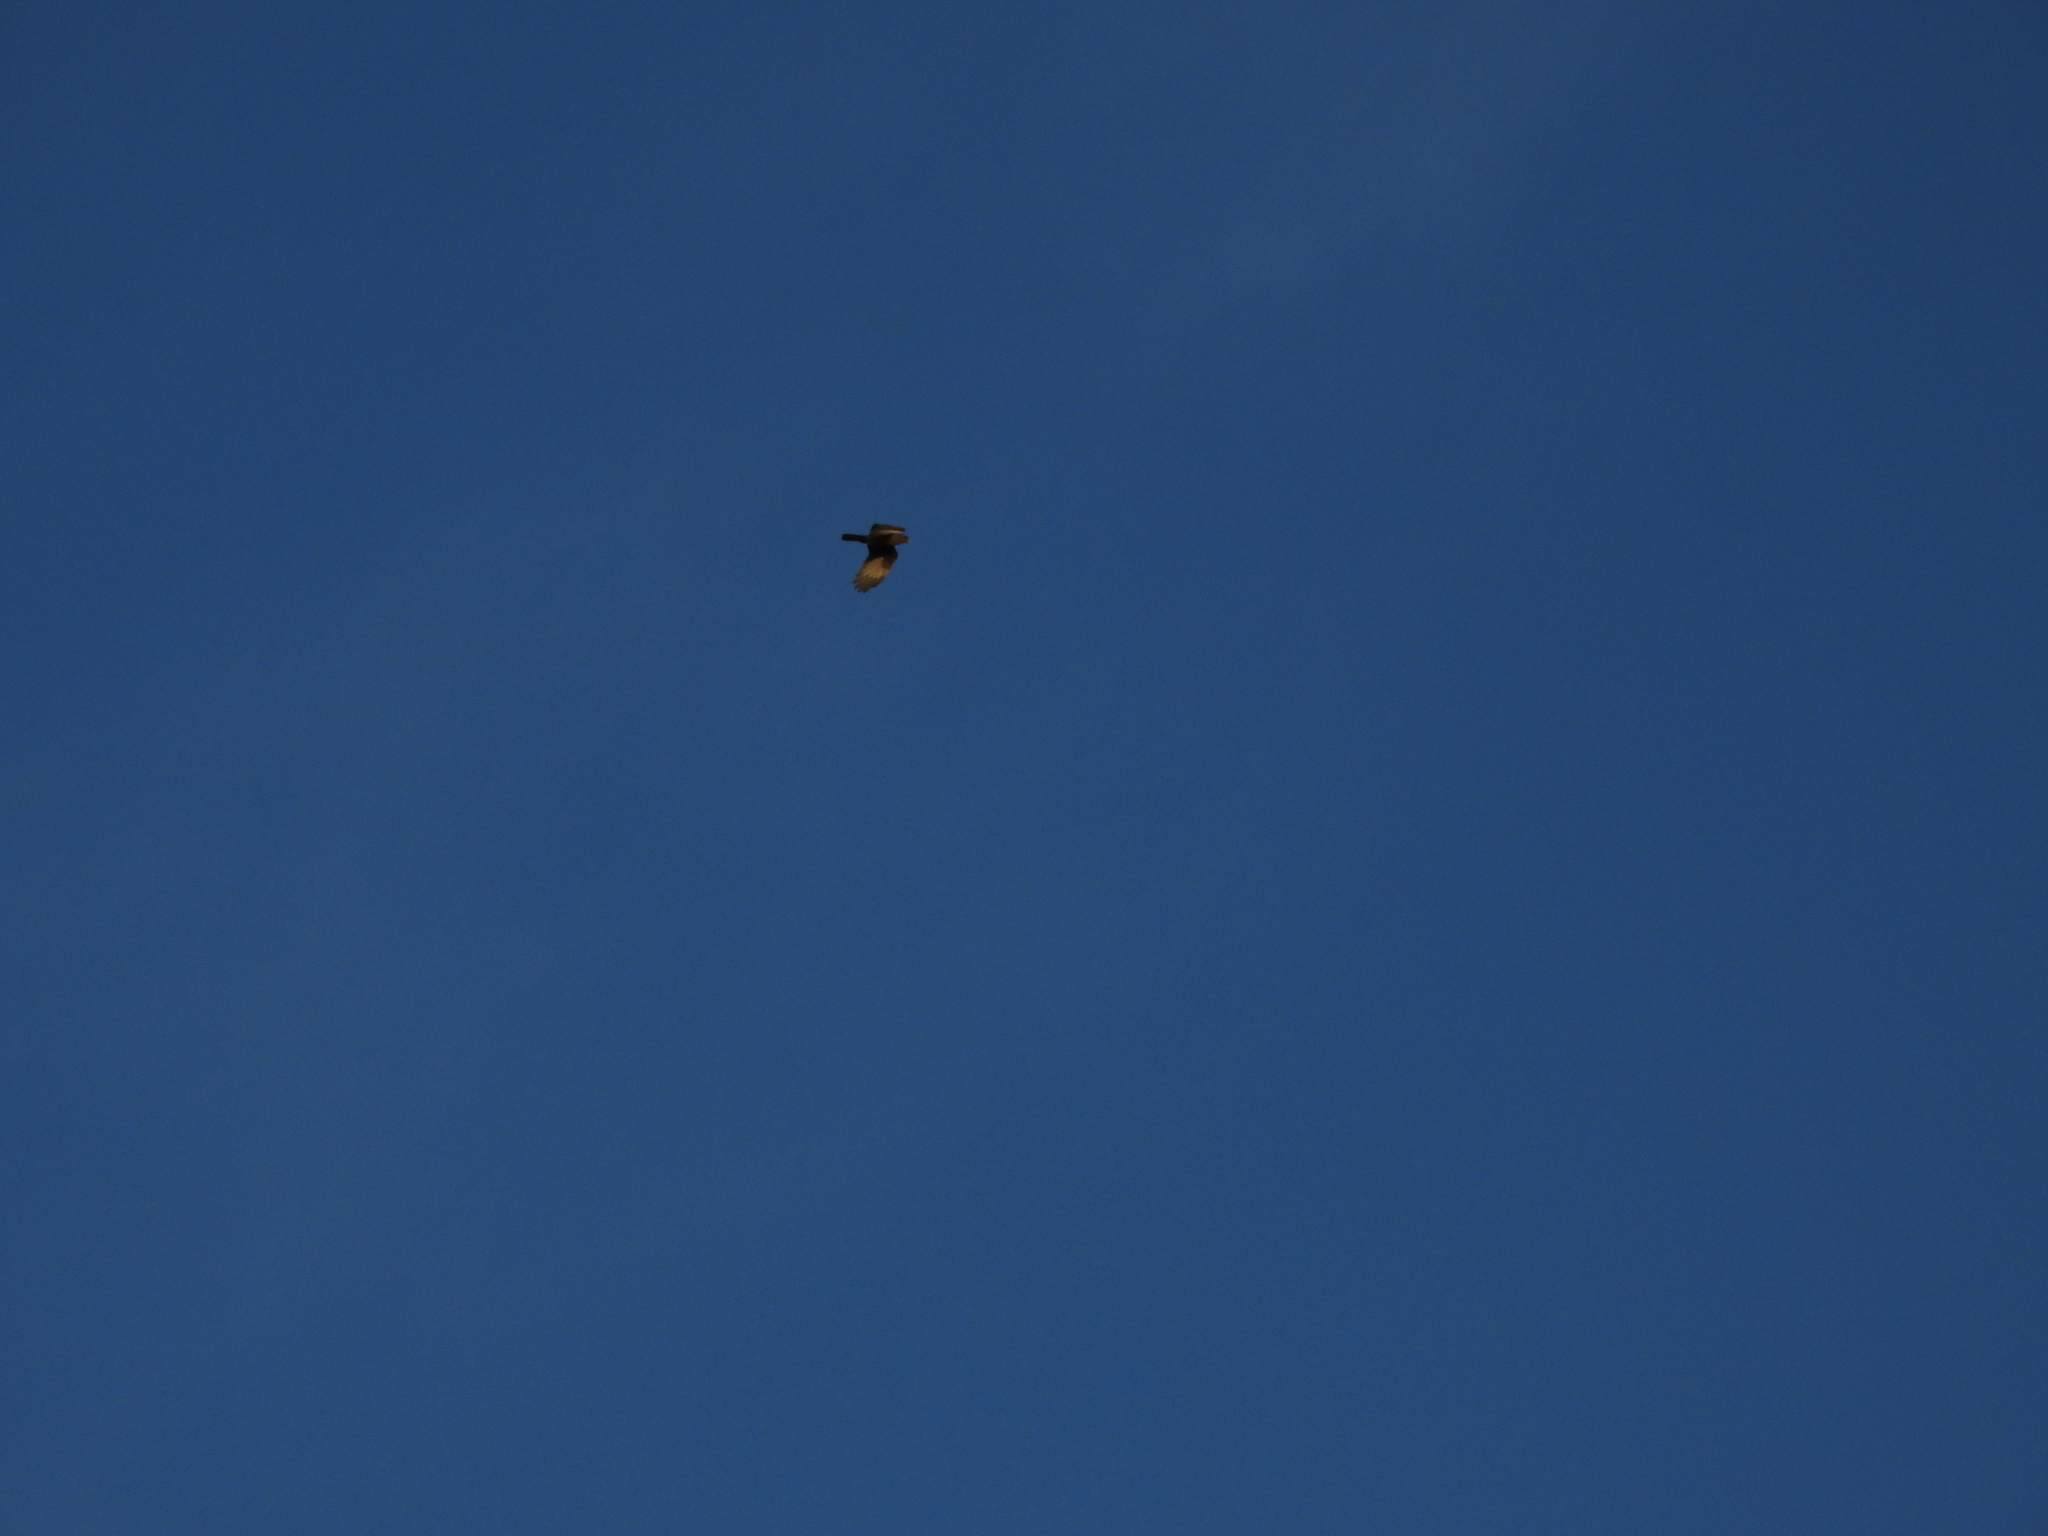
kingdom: Animalia
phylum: Chordata
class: Aves
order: Falconiformes
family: Falconidae
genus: Daptrius
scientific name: Daptrius
